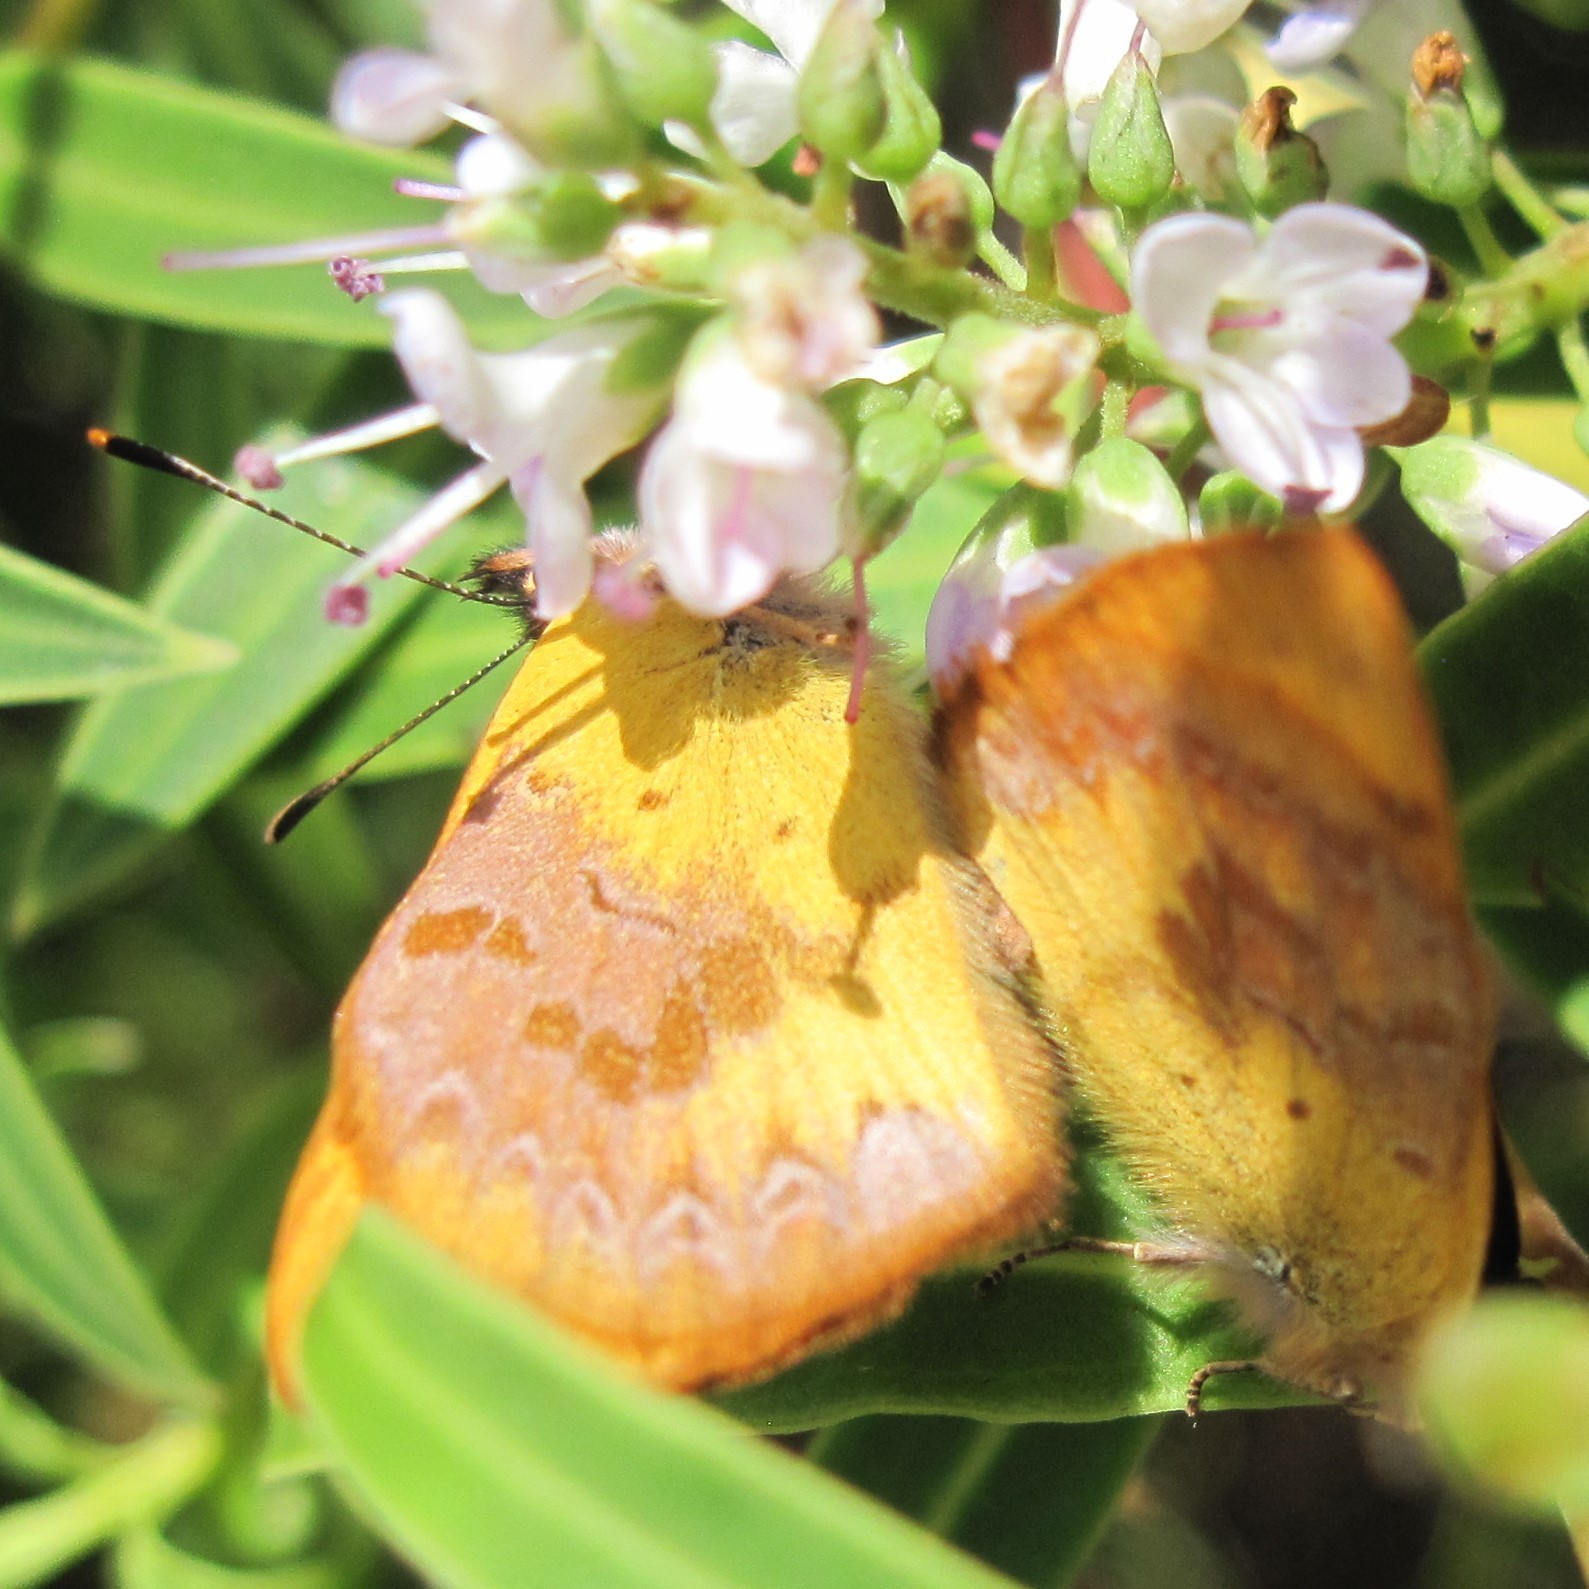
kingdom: Animalia
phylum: Arthropoda
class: Insecta
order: Lepidoptera
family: Lycaenidae
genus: Lycaena
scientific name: Lycaena
